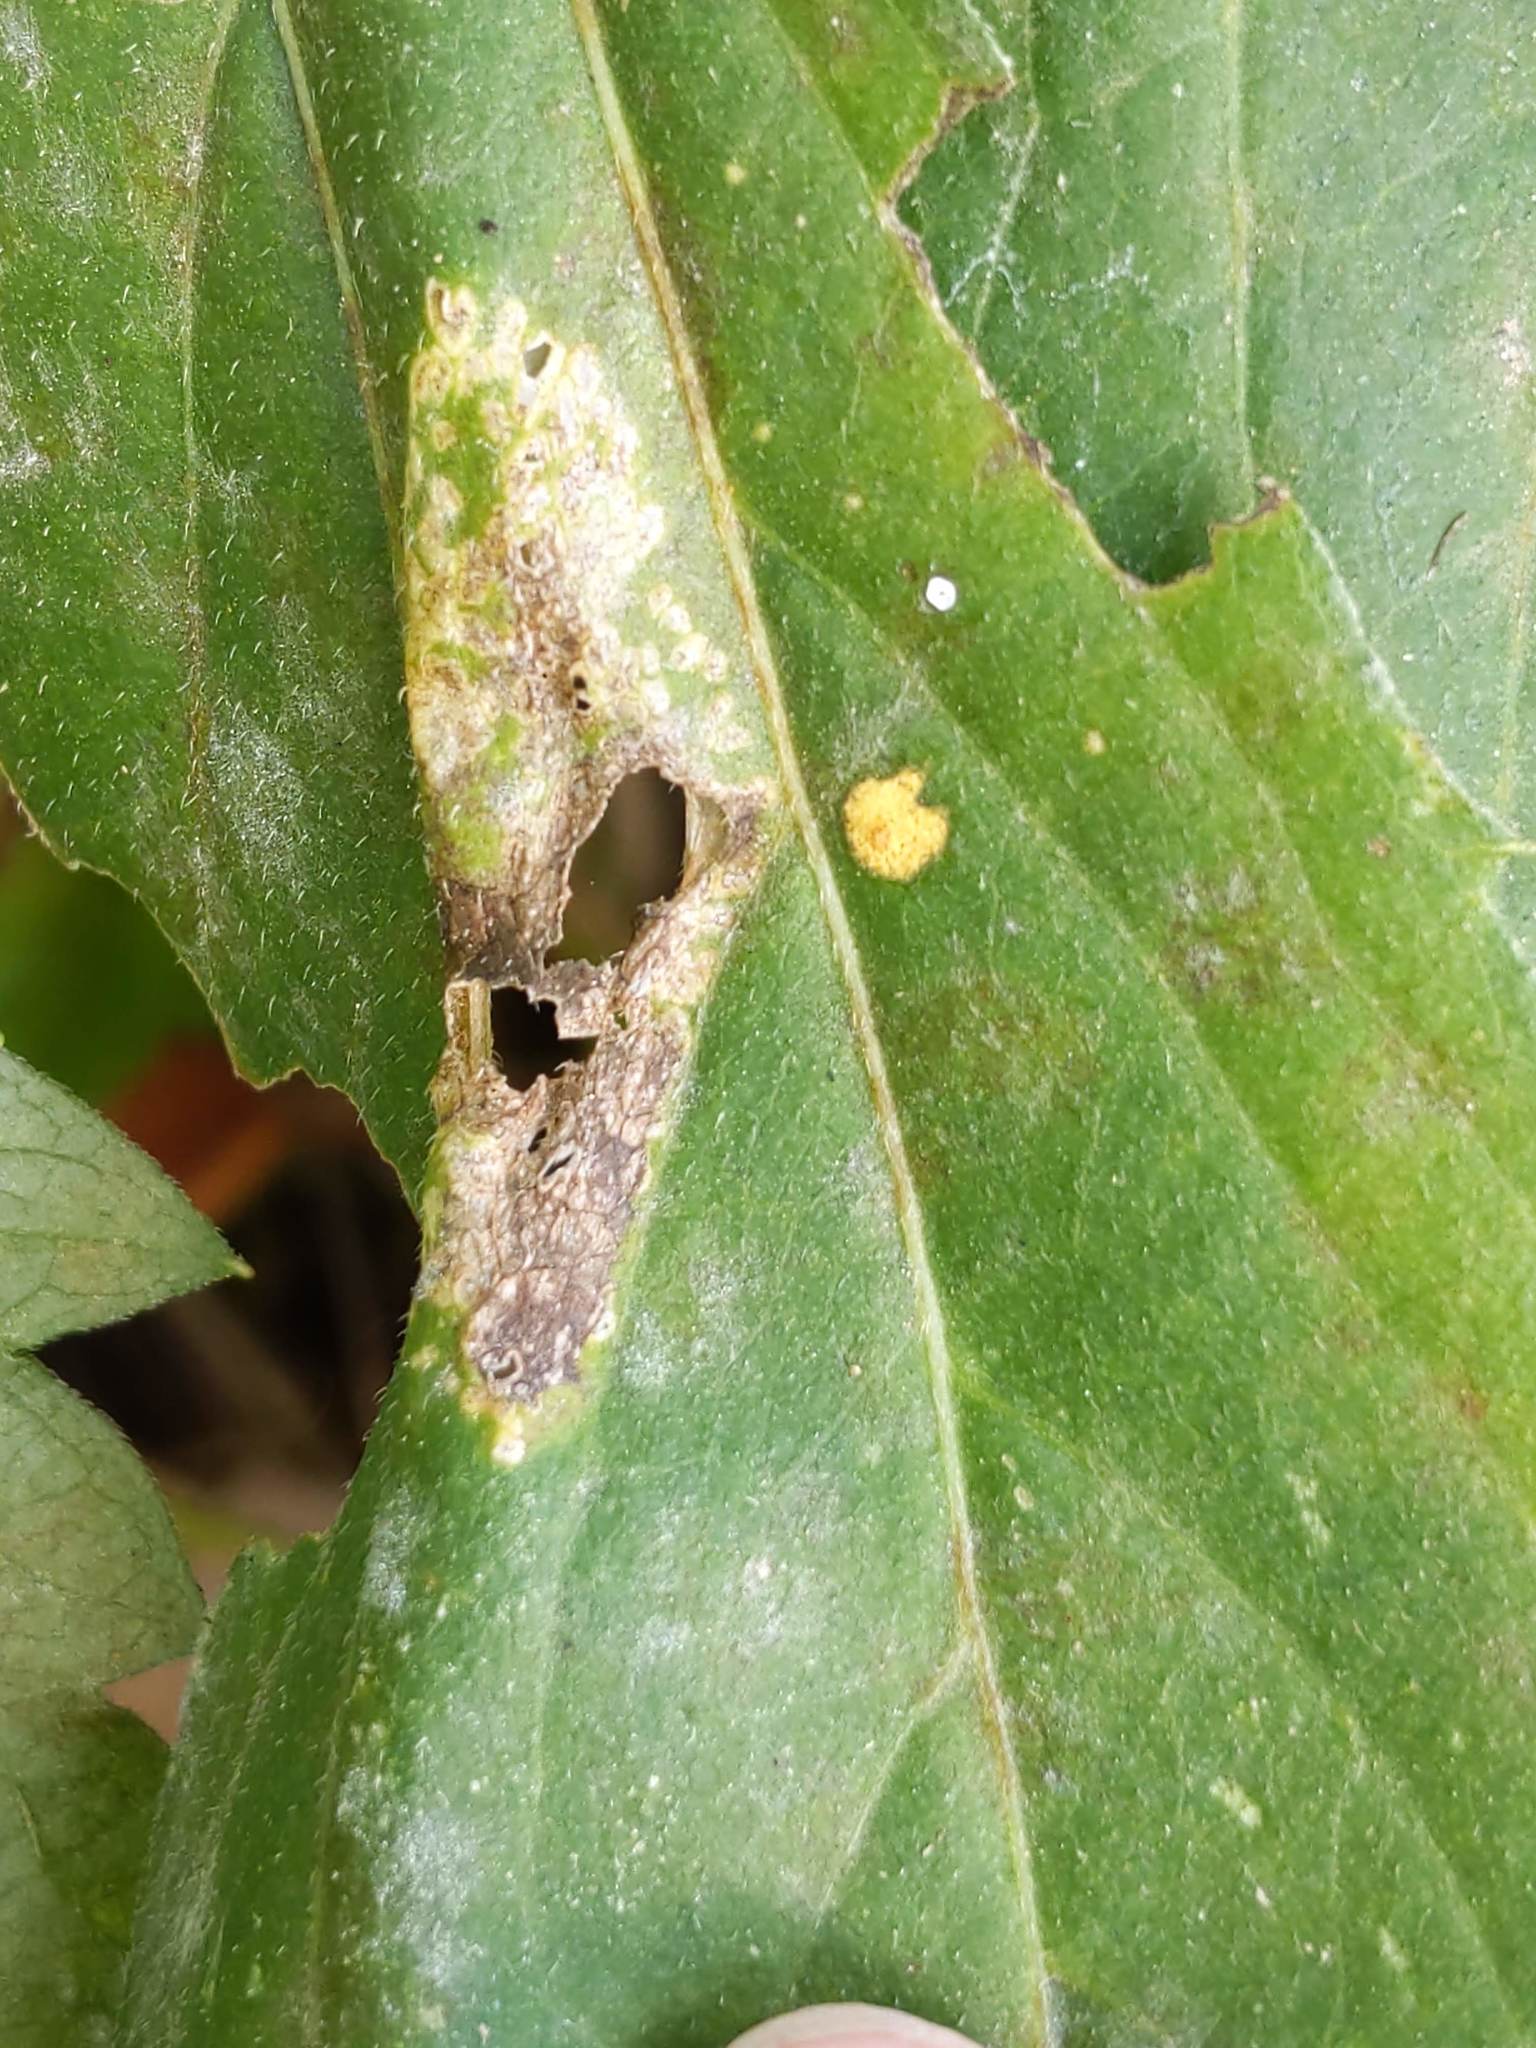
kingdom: Animalia
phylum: Arthropoda
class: Insecta
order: Lepidoptera
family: Gracillariidae
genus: Leucospilapteryx
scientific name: Leucospilapteryx venustella
